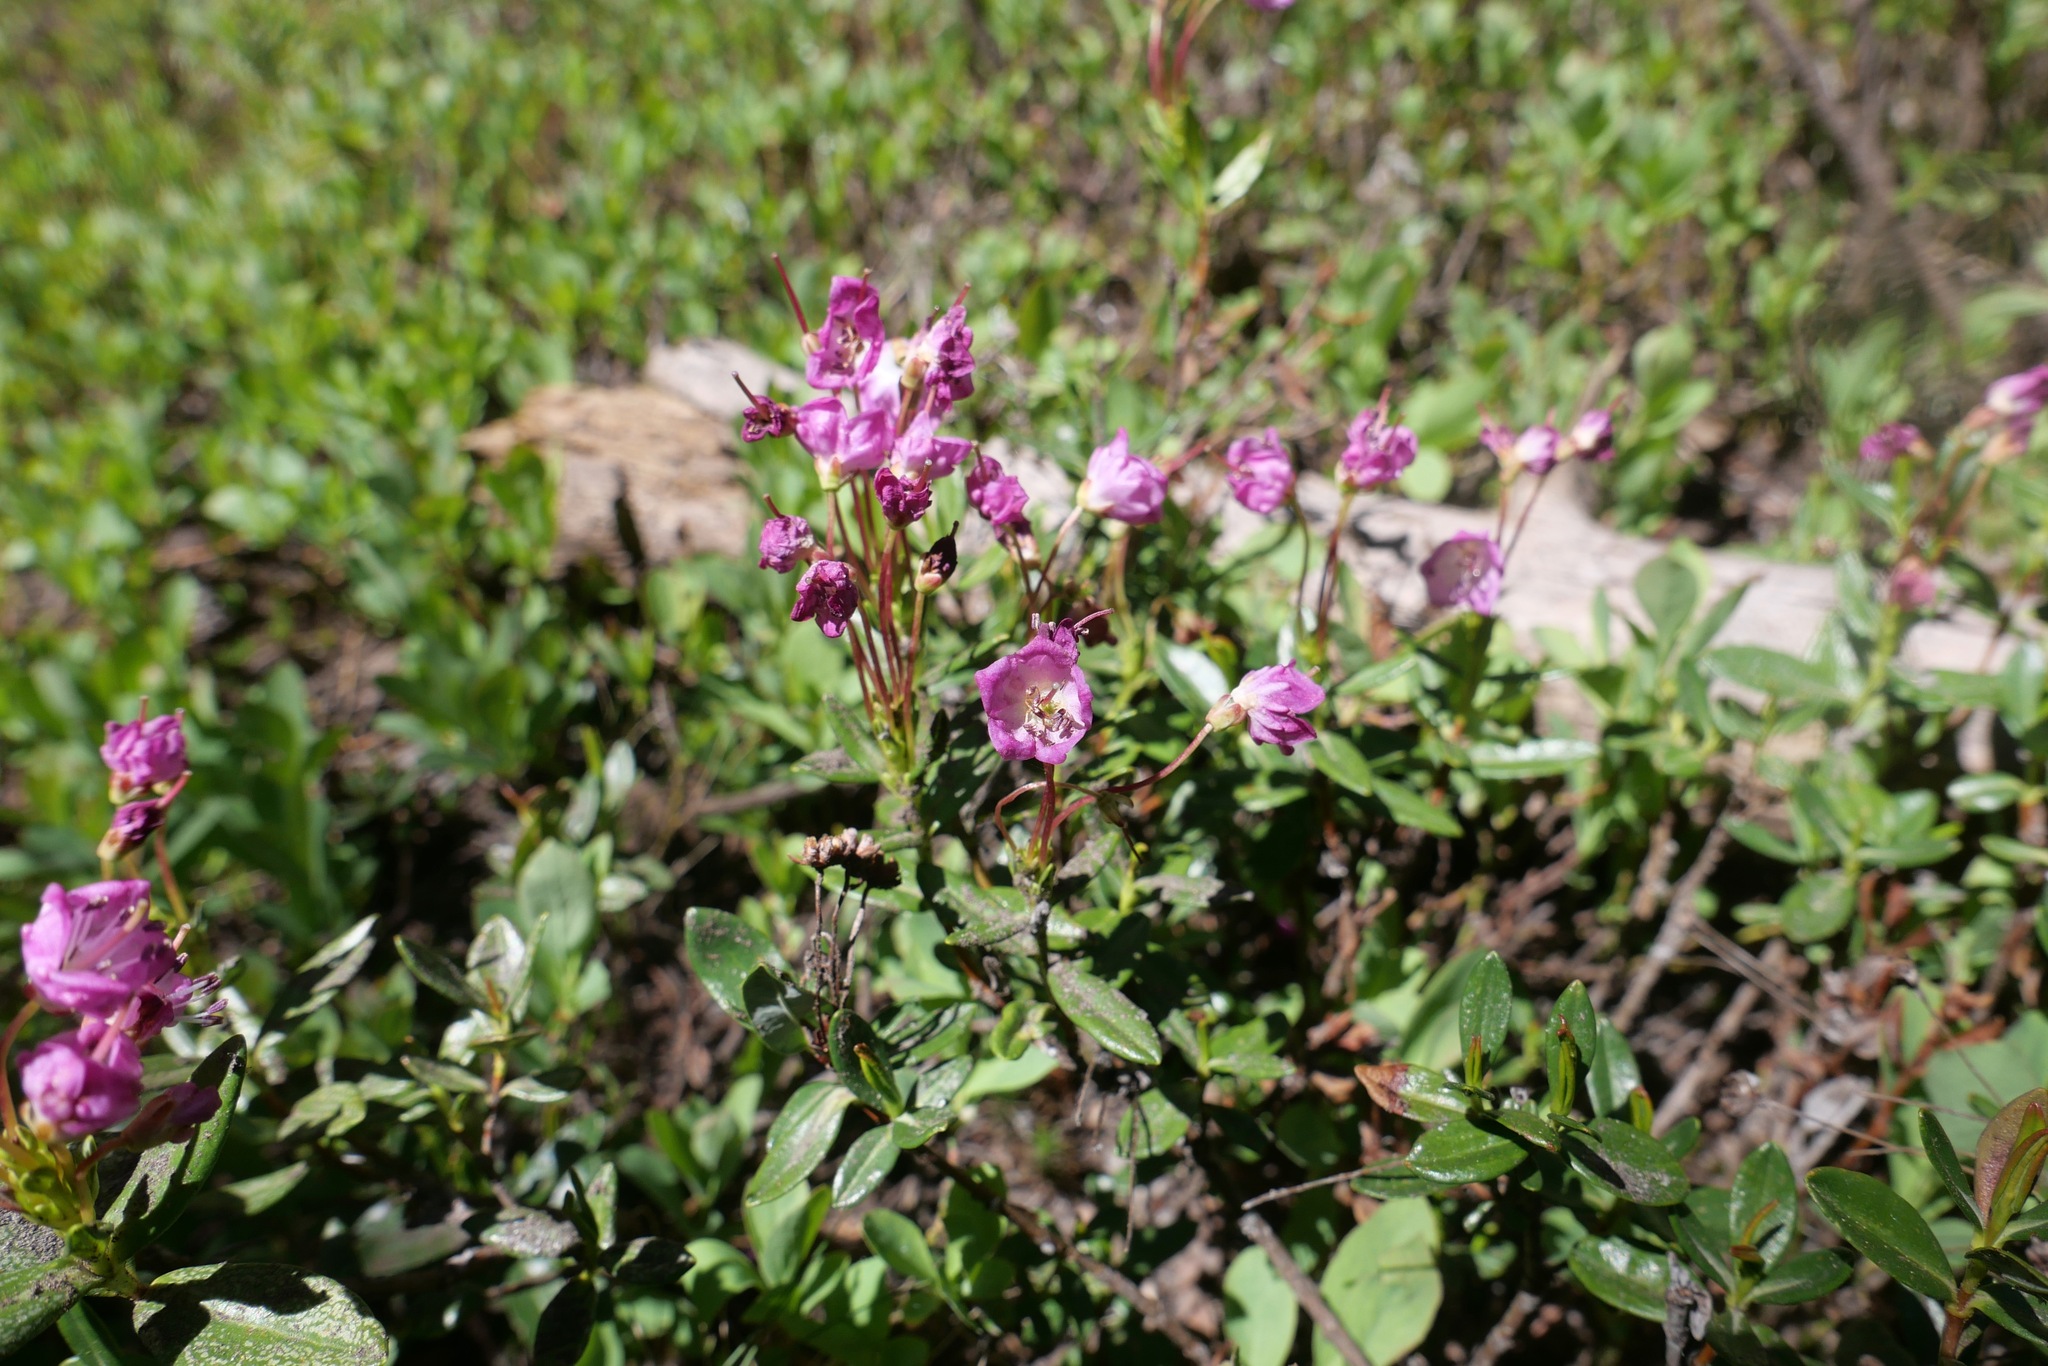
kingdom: Plantae
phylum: Tracheophyta
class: Magnoliopsida
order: Ericales
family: Ericaceae
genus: Kalmia
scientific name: Kalmia microphylla
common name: Alpine bog laurel
